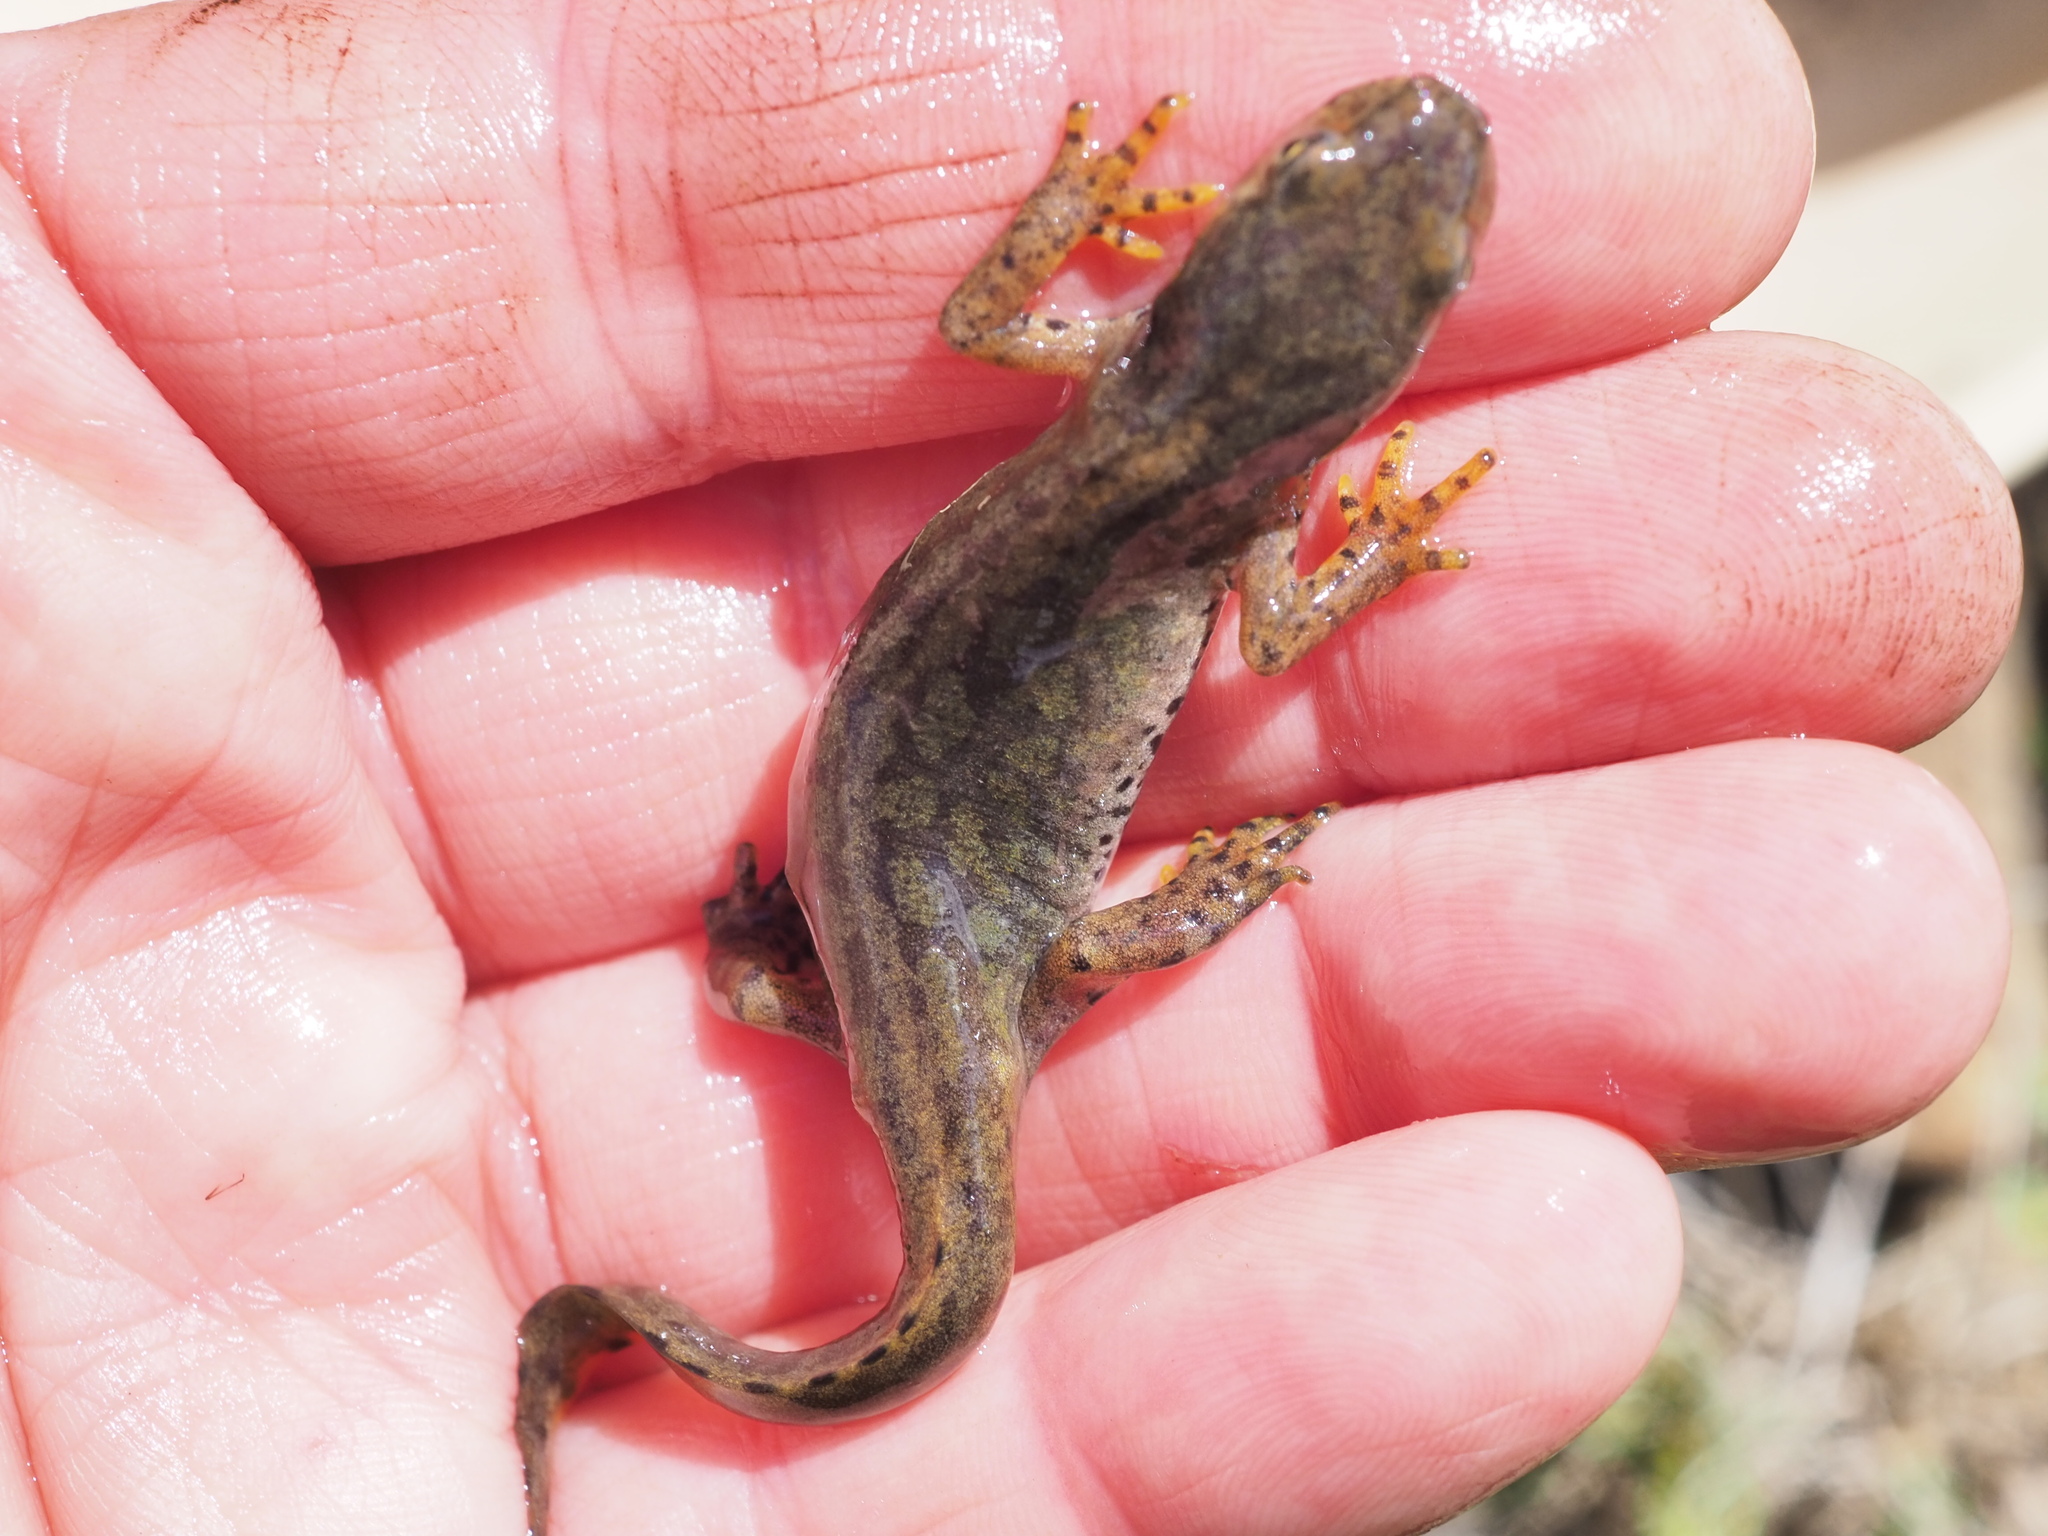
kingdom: Animalia
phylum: Chordata
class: Amphibia
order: Caudata
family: Salamandridae
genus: Lissotriton
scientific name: Lissotriton helveticus
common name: Palmate newt
